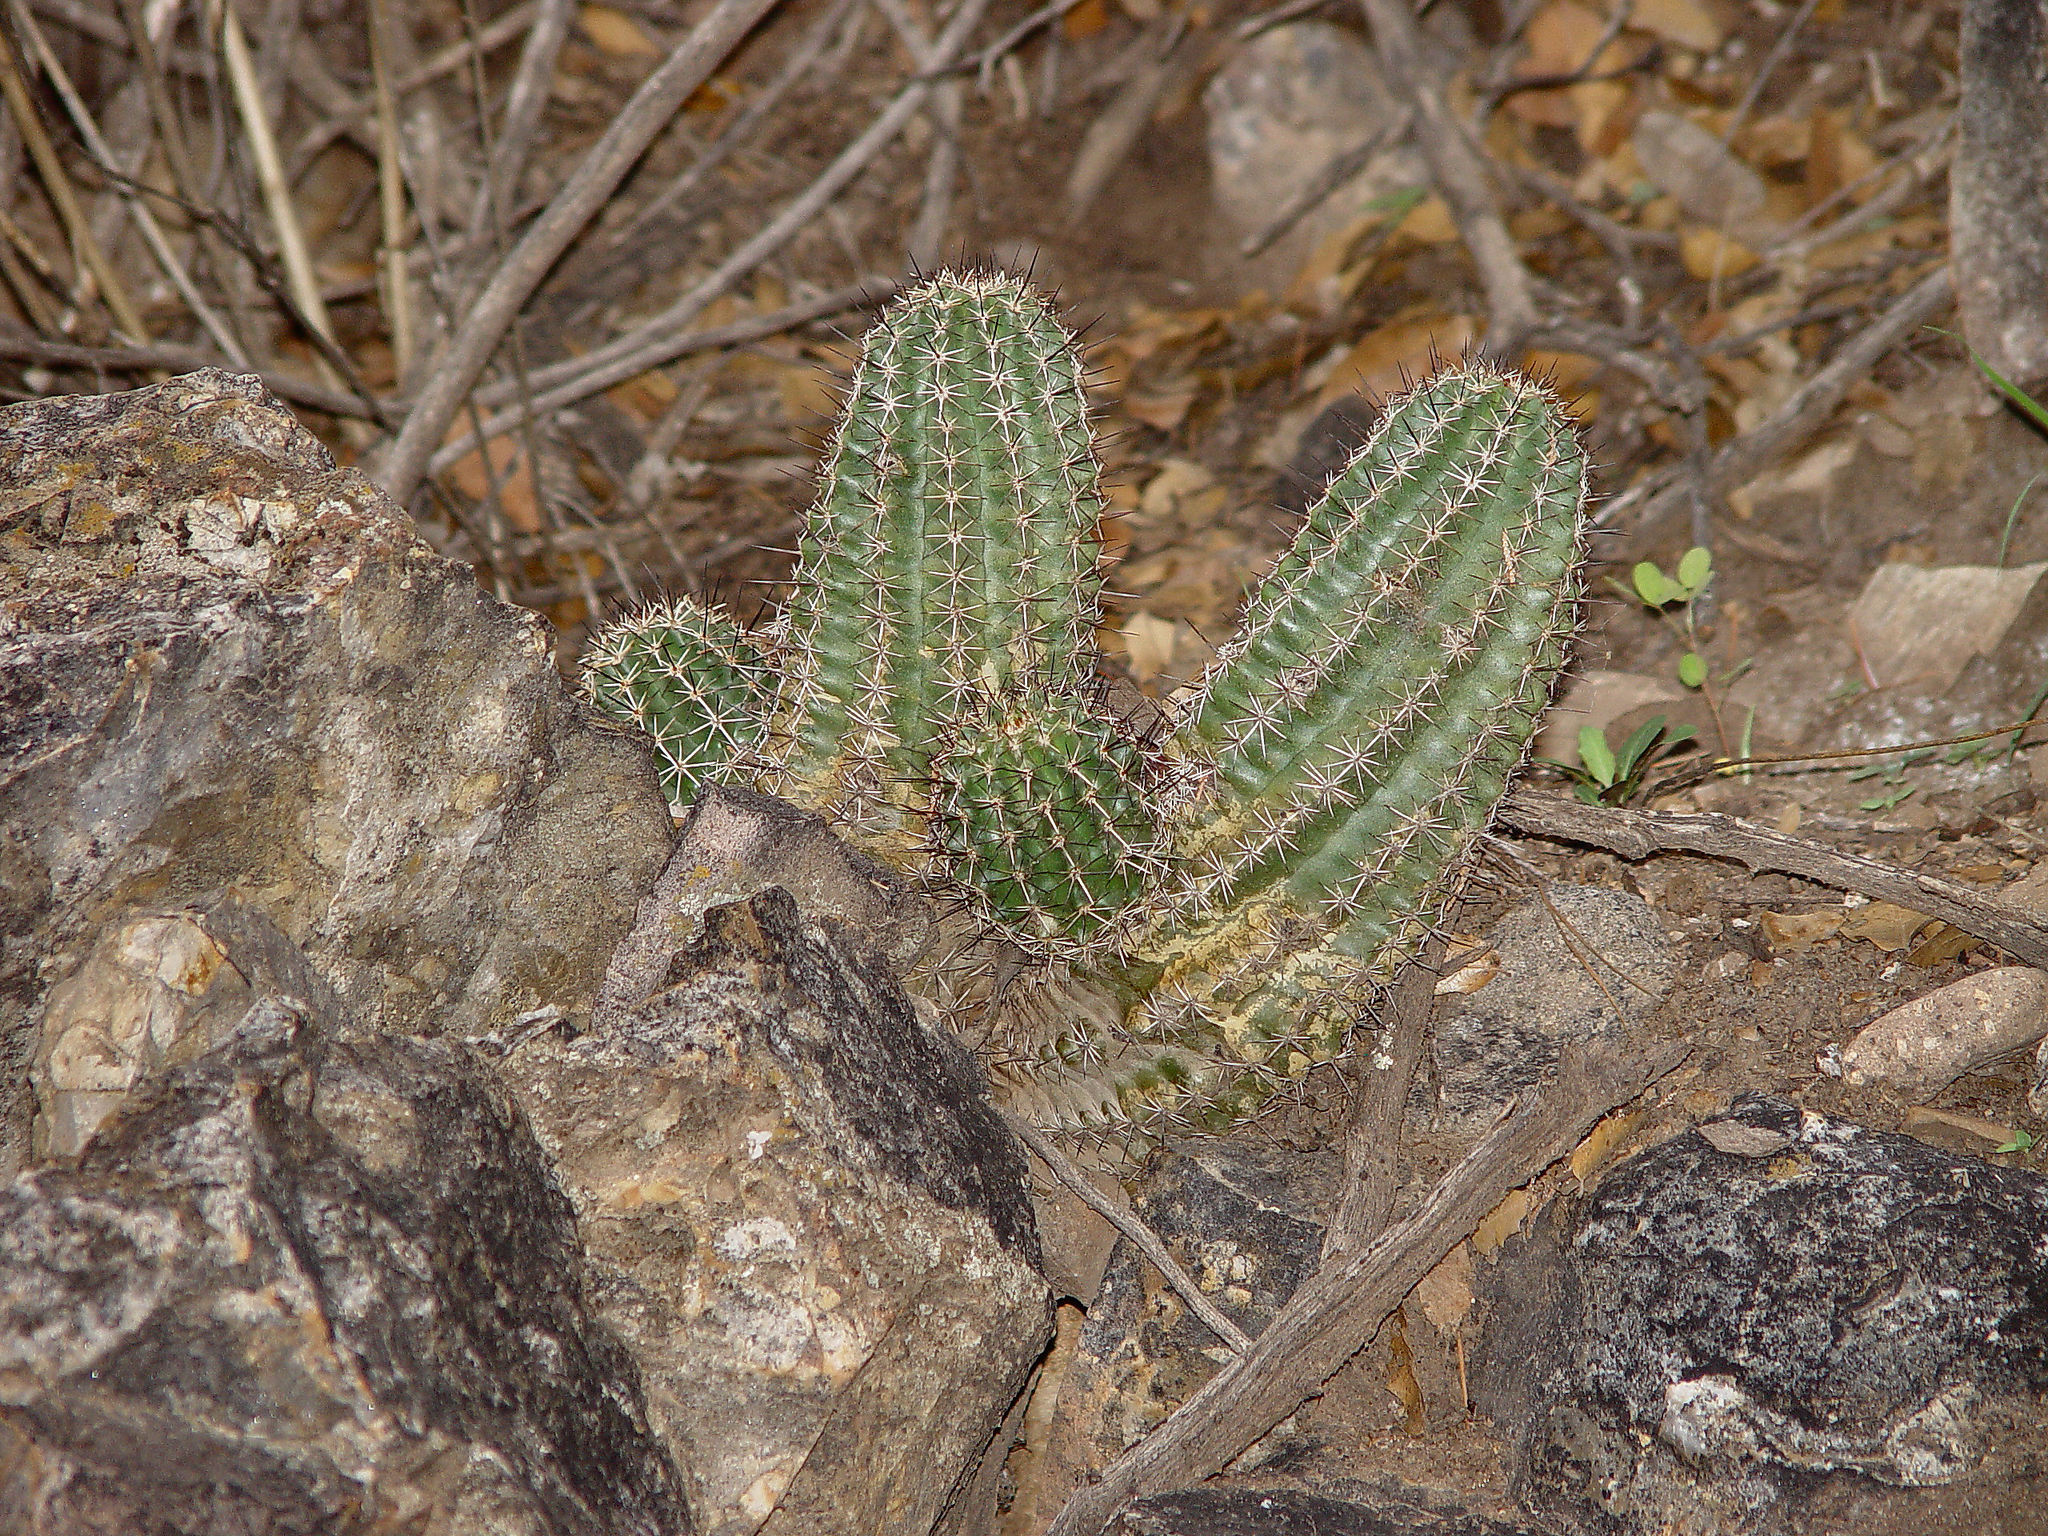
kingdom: Plantae
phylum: Tracheophyta
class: Magnoliopsida
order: Caryophyllales
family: Cactaceae
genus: Echinocereus
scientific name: Echinocereus fendleri
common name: Fendler's hedgehog cactus
